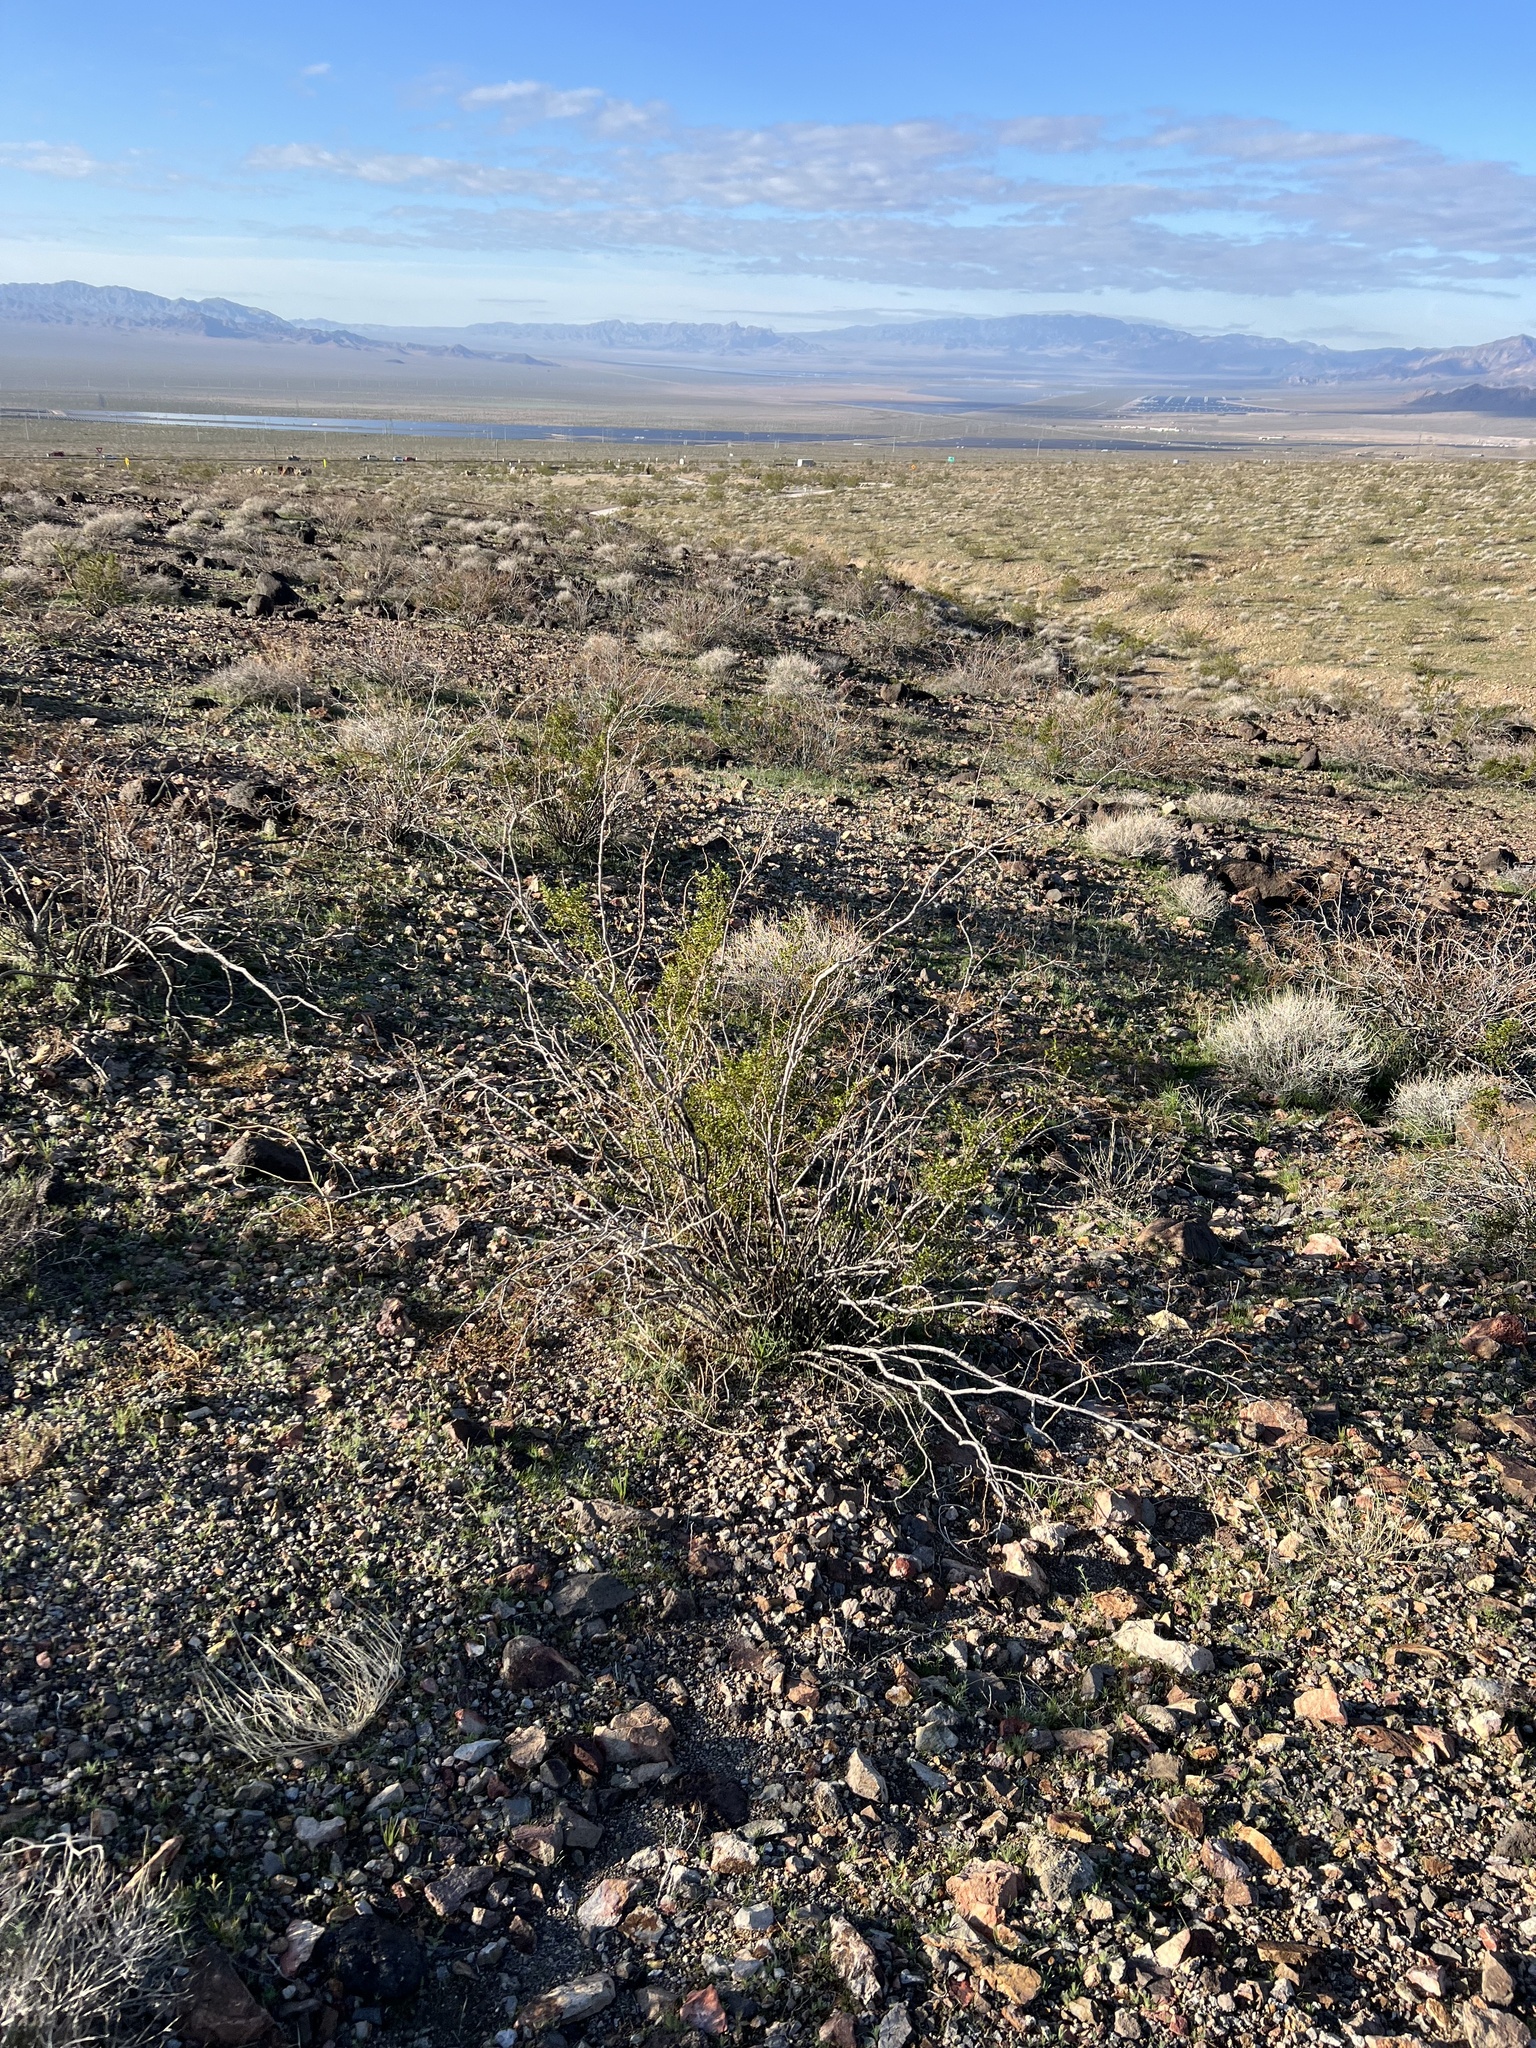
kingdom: Plantae
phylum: Tracheophyta
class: Magnoliopsida
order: Zygophyllales
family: Zygophyllaceae
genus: Larrea
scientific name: Larrea tridentata
